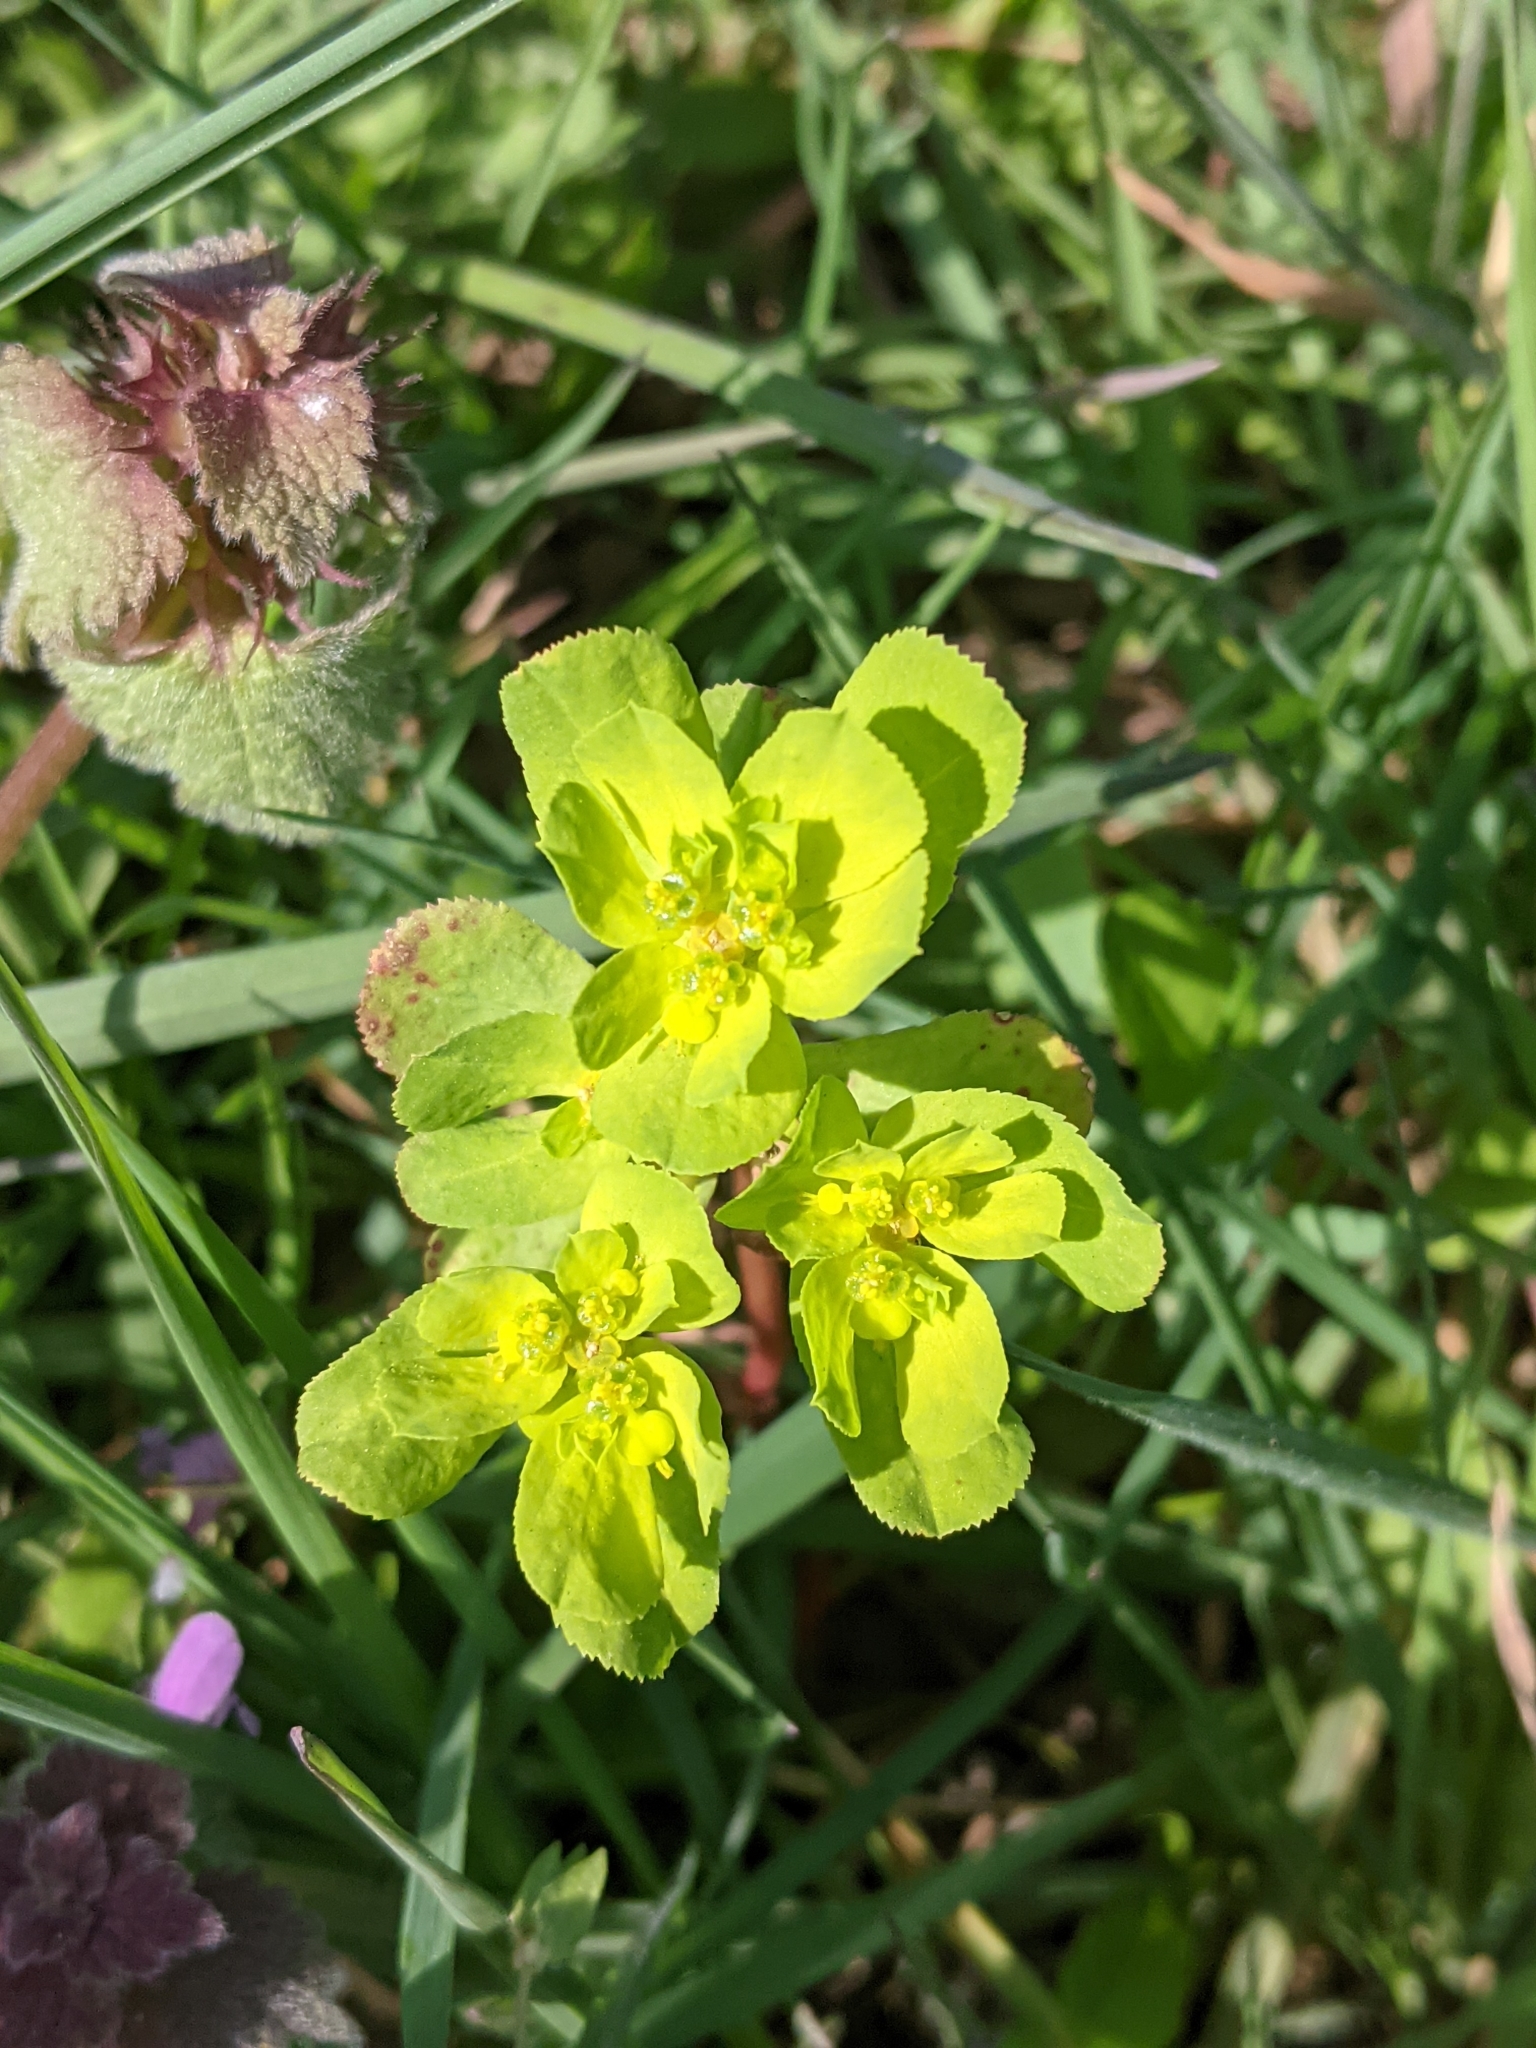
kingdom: Plantae
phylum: Tracheophyta
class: Magnoliopsida
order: Malpighiales
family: Euphorbiaceae
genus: Euphorbia
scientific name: Euphorbia helioscopia
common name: Sun spurge
